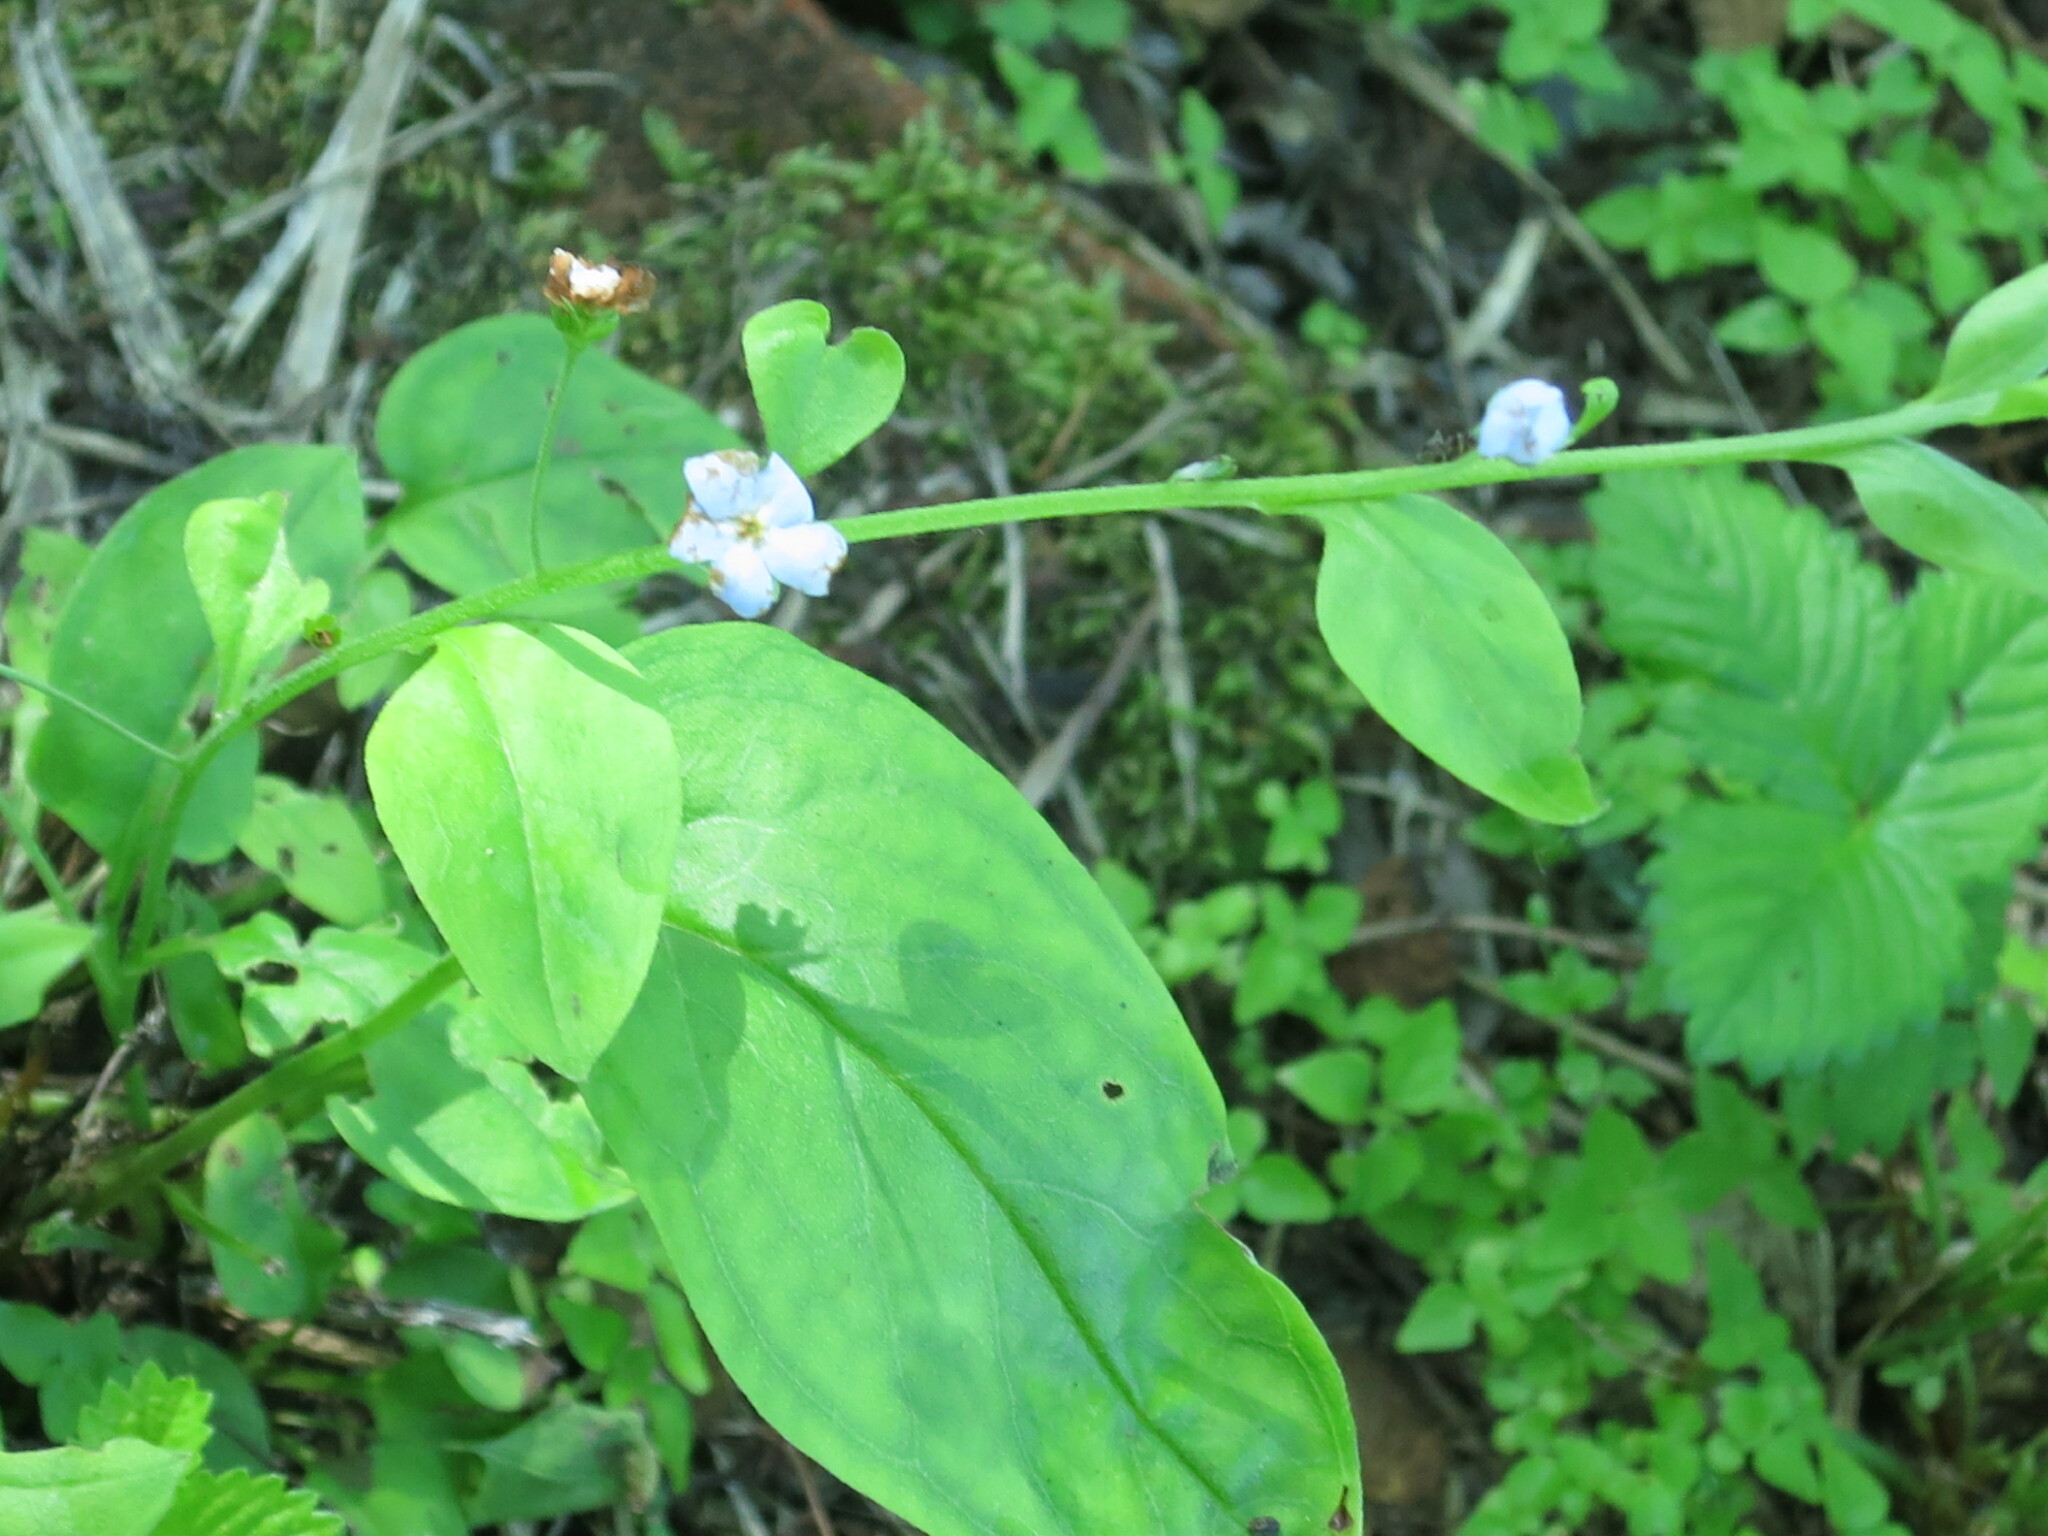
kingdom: Plantae
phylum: Tracheophyta
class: Magnoliopsida
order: Boraginales
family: Boraginaceae
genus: Trigonotis
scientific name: Trigonotis radicans
